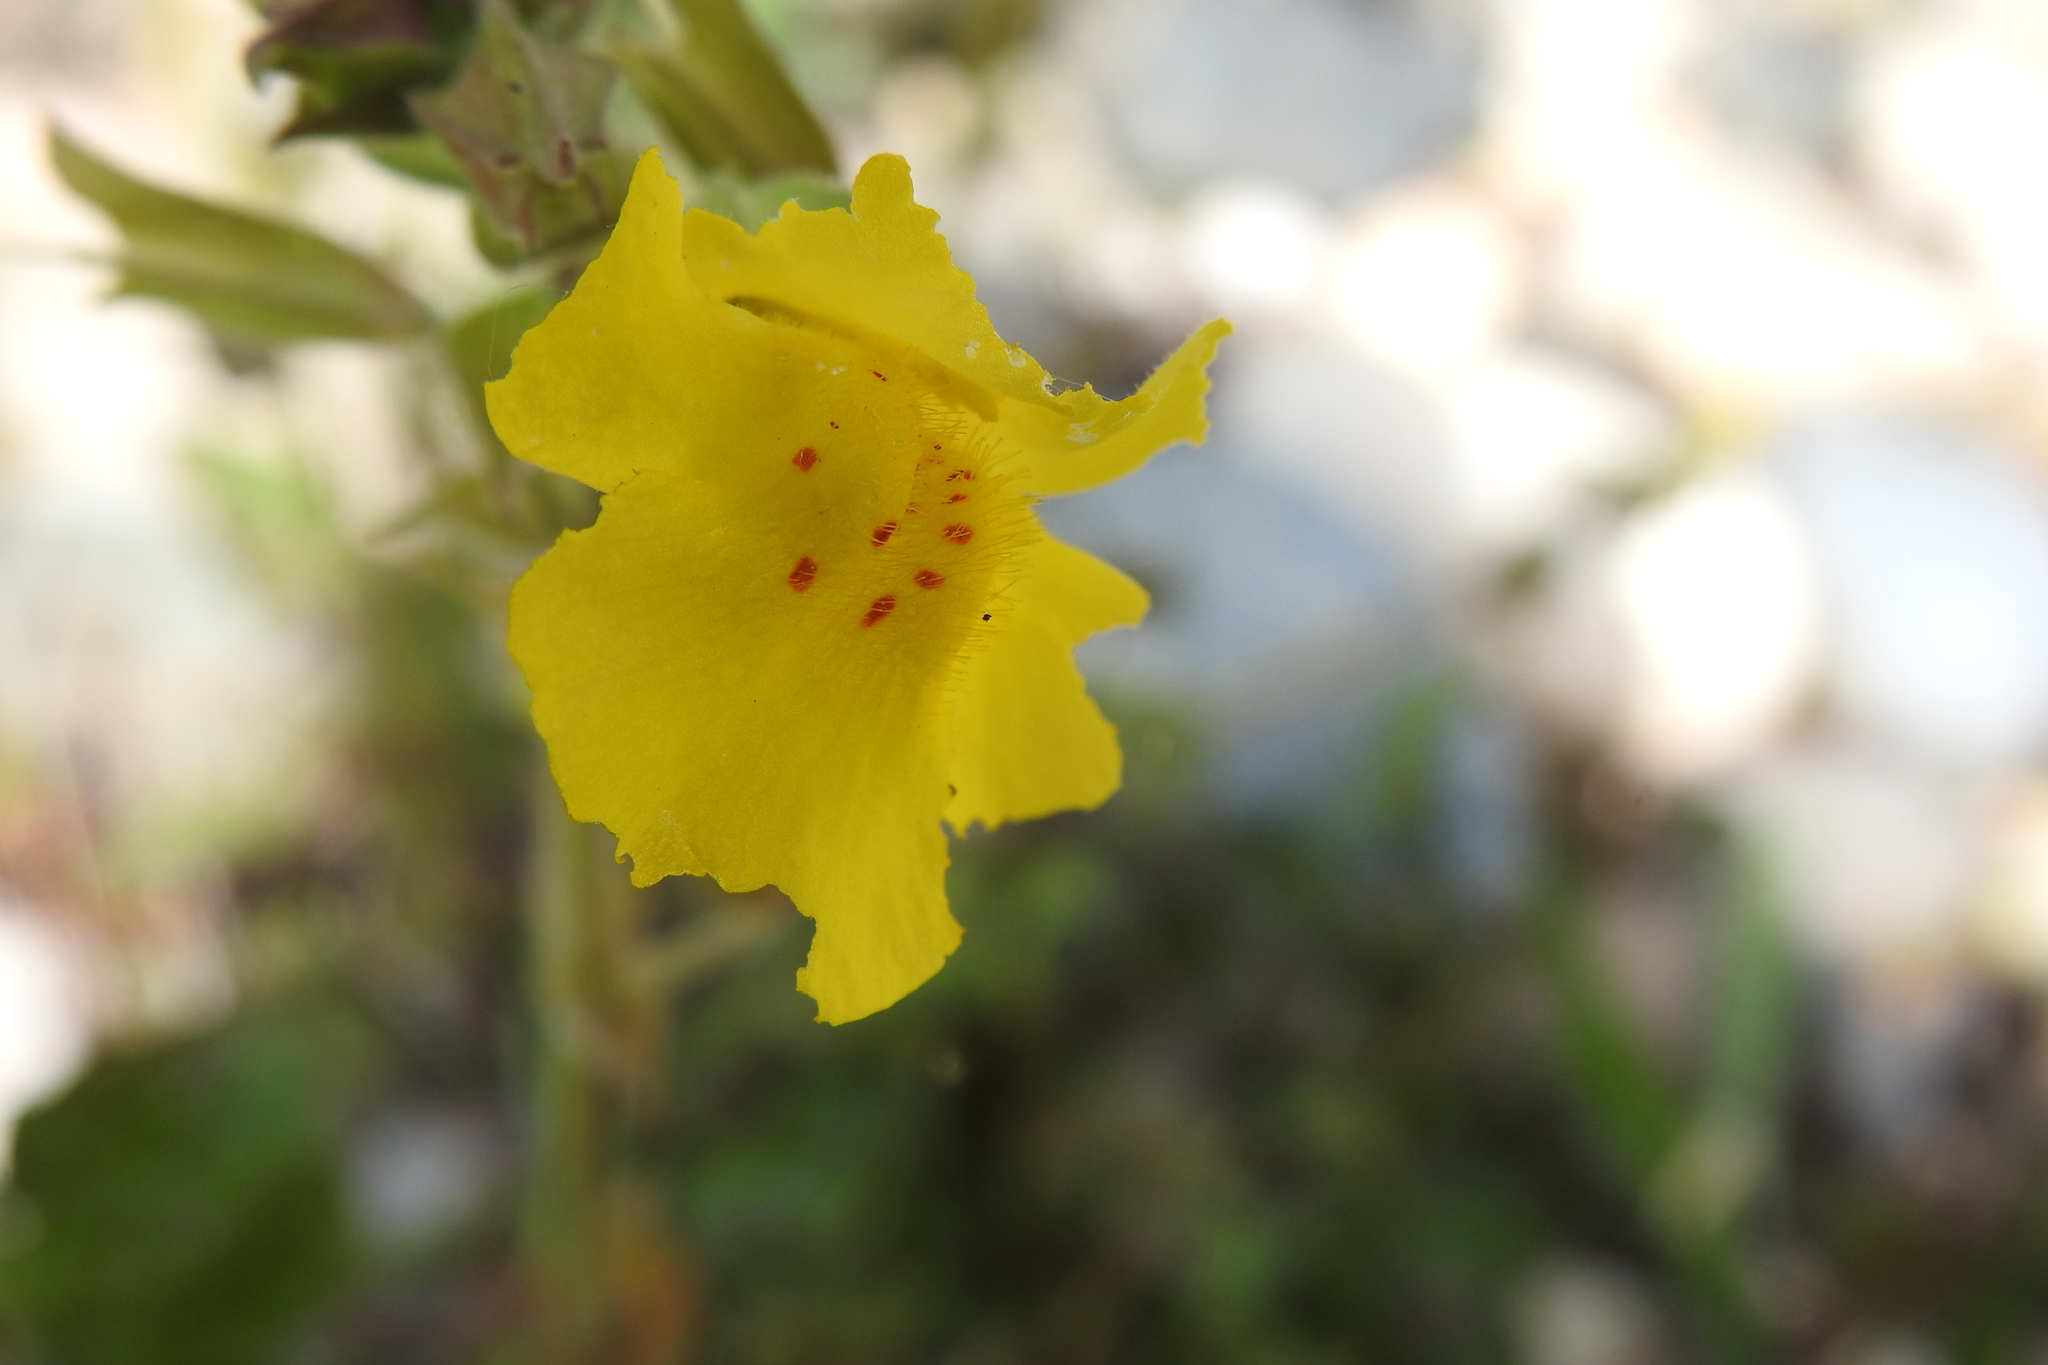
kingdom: Plantae
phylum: Tracheophyta
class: Magnoliopsida
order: Lamiales
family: Phrymaceae
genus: Erythranthe
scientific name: Erythranthe guttata
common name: Monkeyflower
